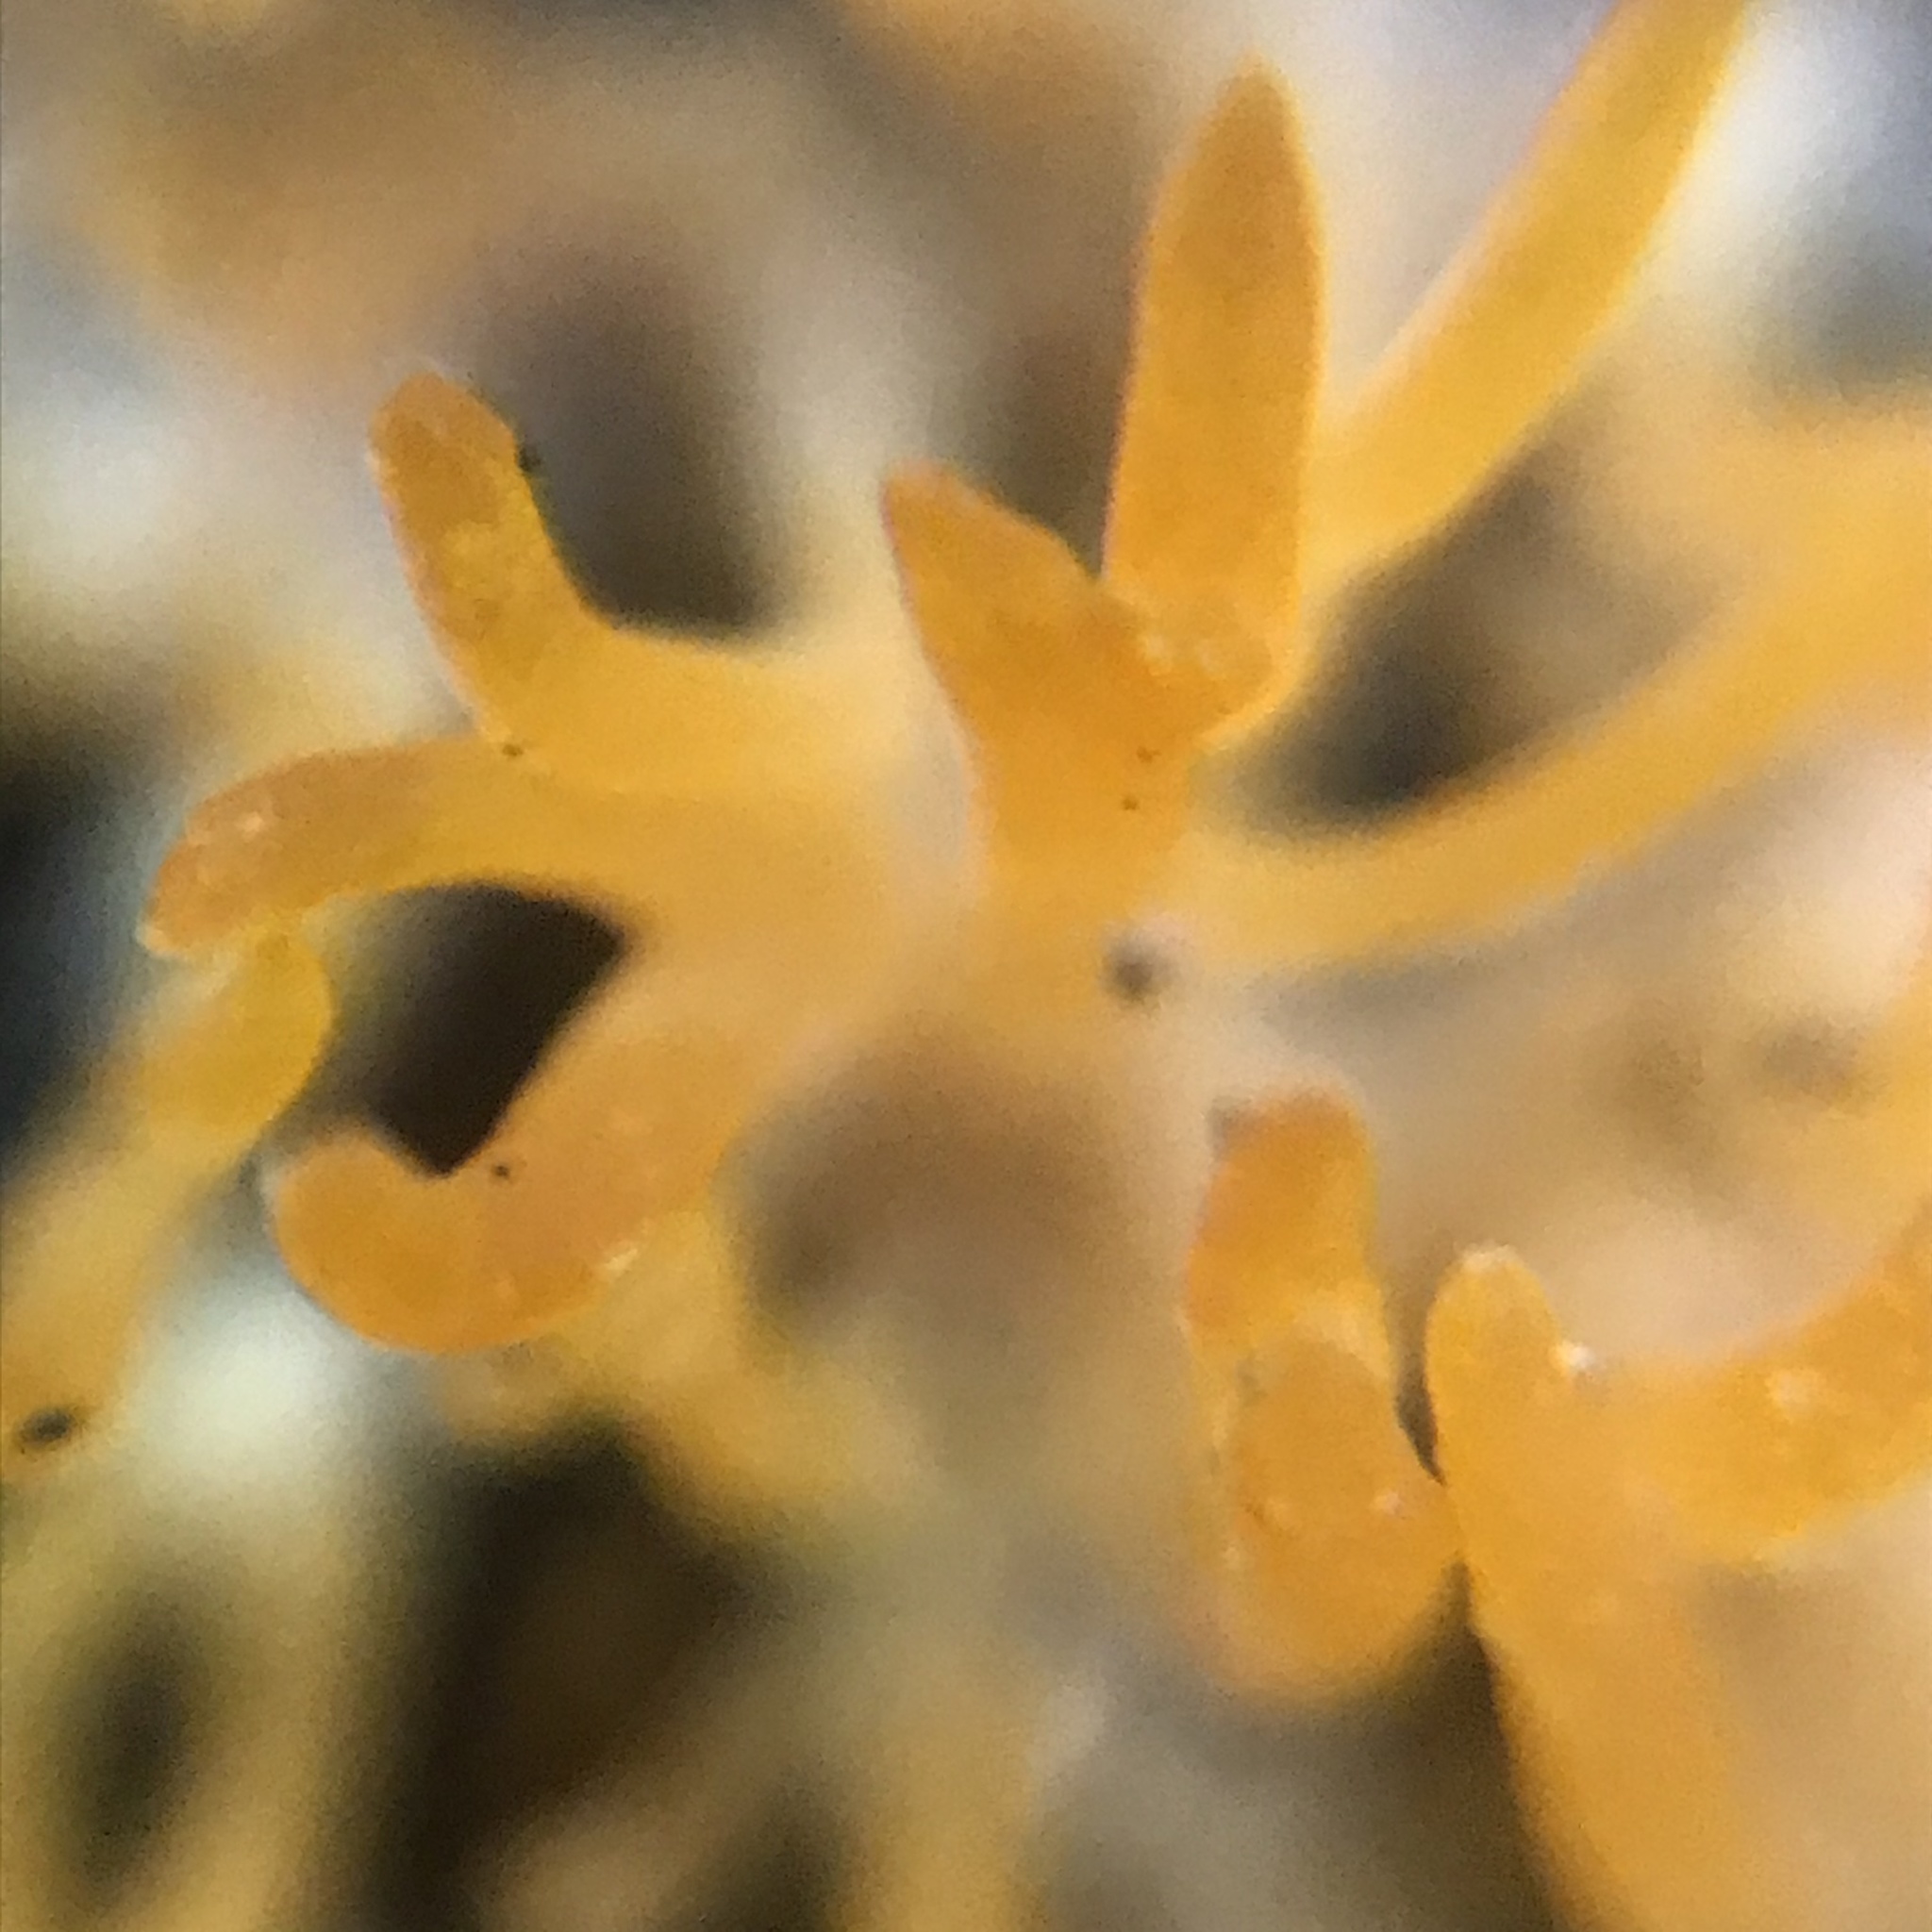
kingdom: Fungi
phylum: Basidiomycota
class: Dacrymycetes
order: Dacrymycetales
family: Dacrymycetaceae
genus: Calocera
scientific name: Calocera cornea
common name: Small stagshorn
